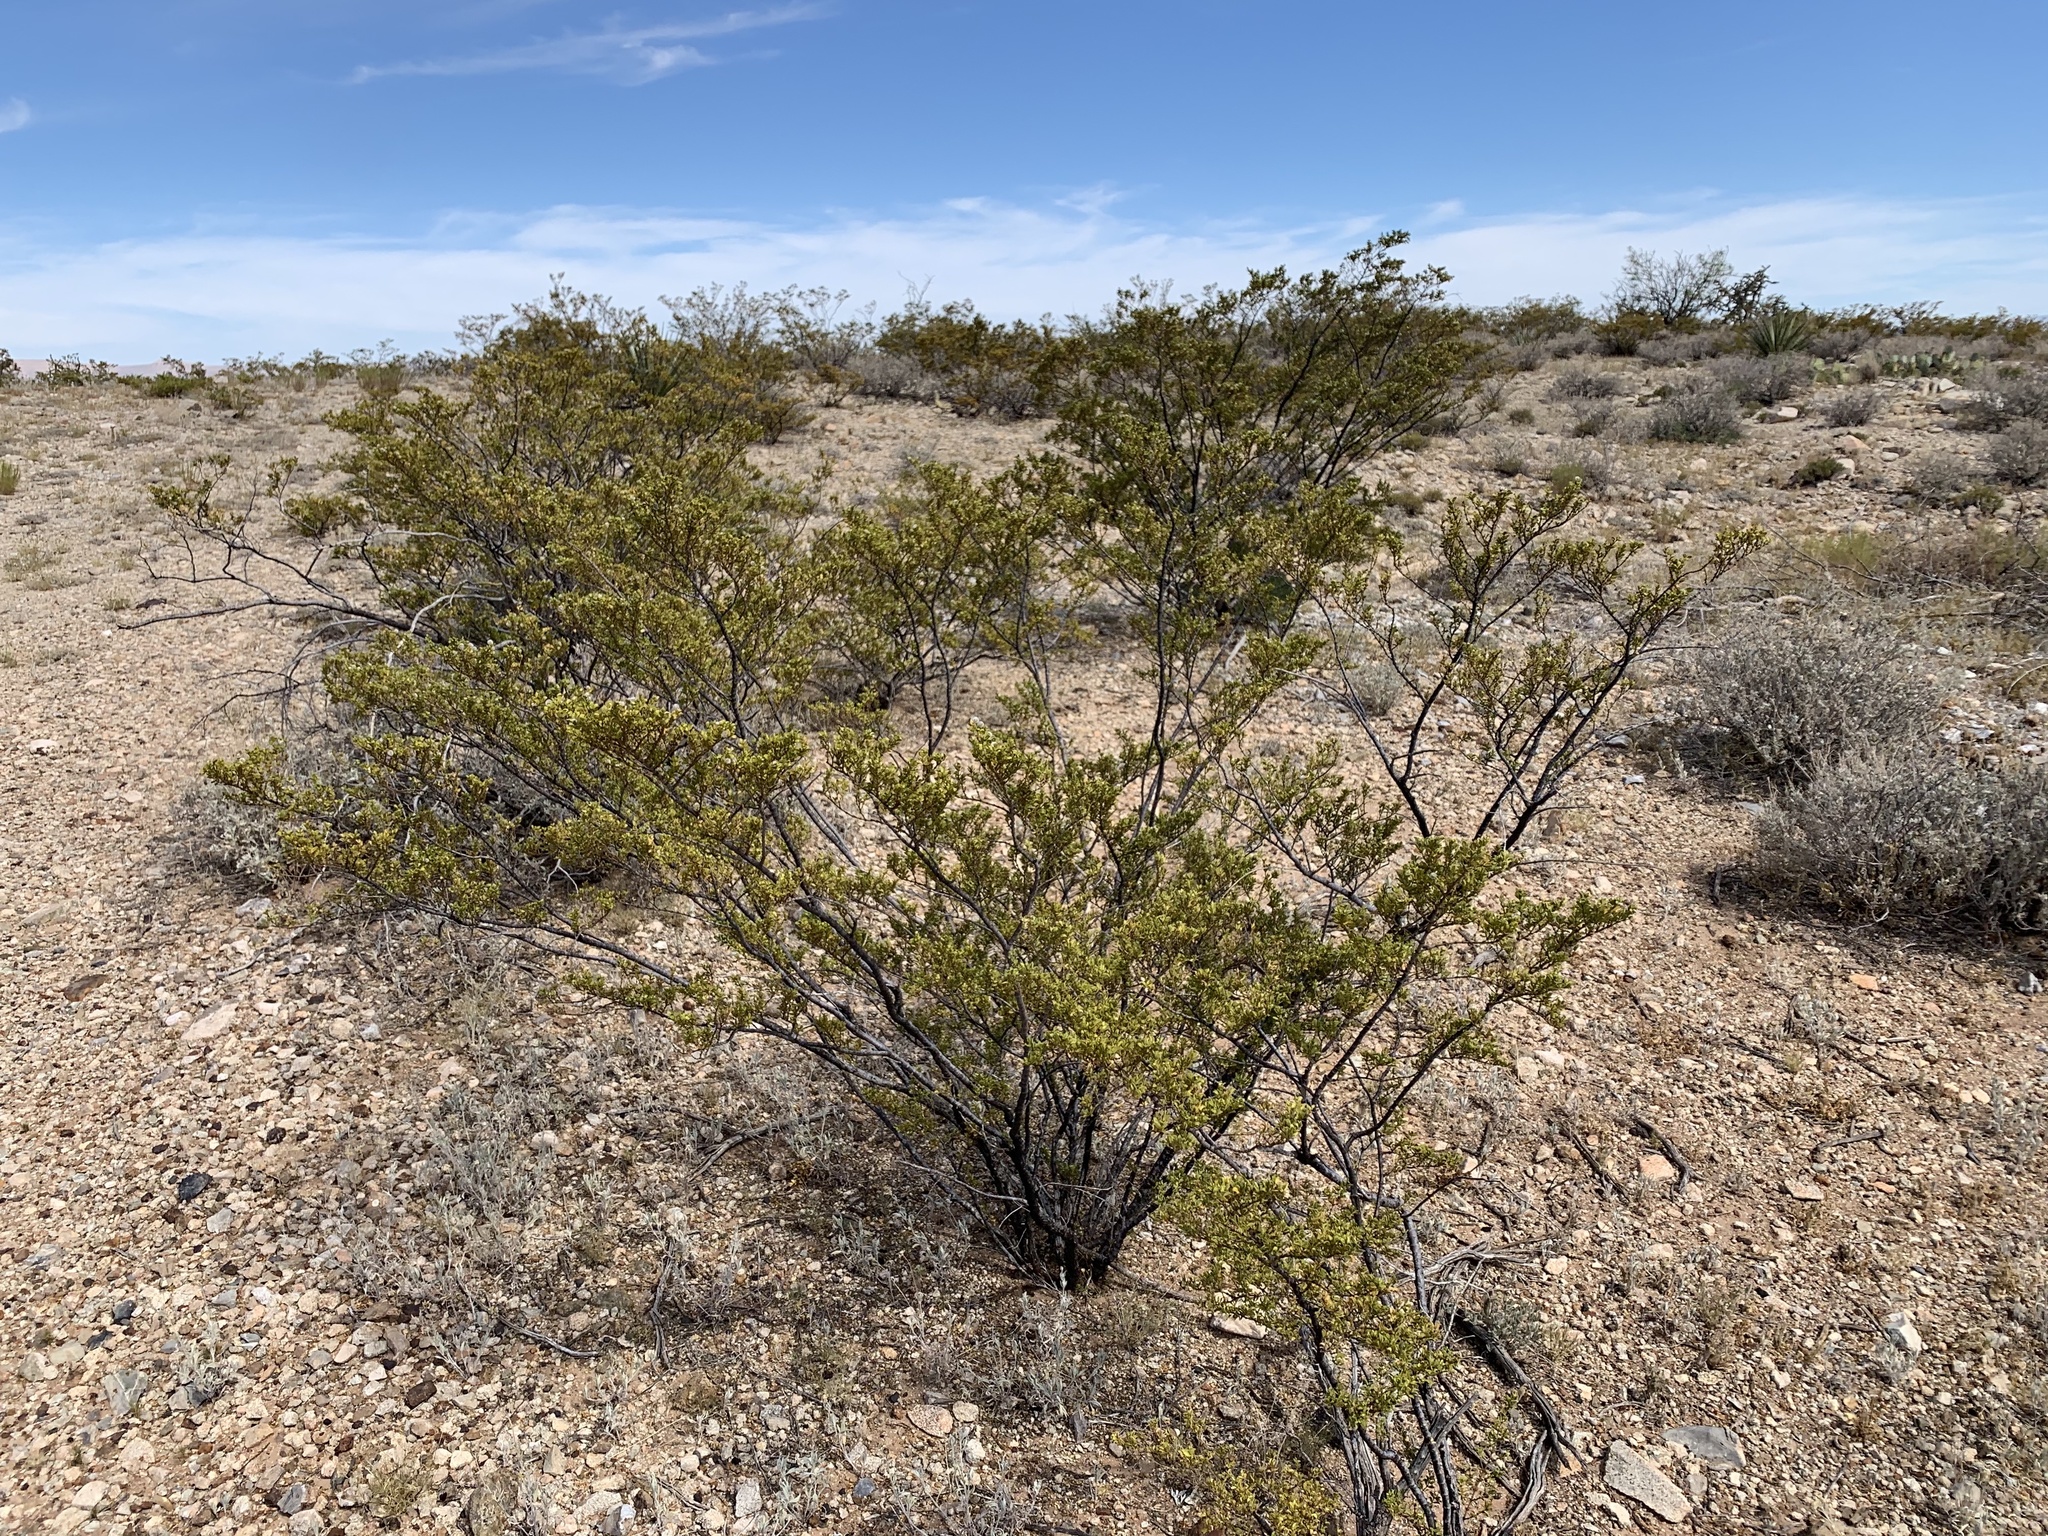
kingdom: Plantae
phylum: Tracheophyta
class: Magnoliopsida
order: Zygophyllales
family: Zygophyllaceae
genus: Larrea
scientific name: Larrea tridentata
